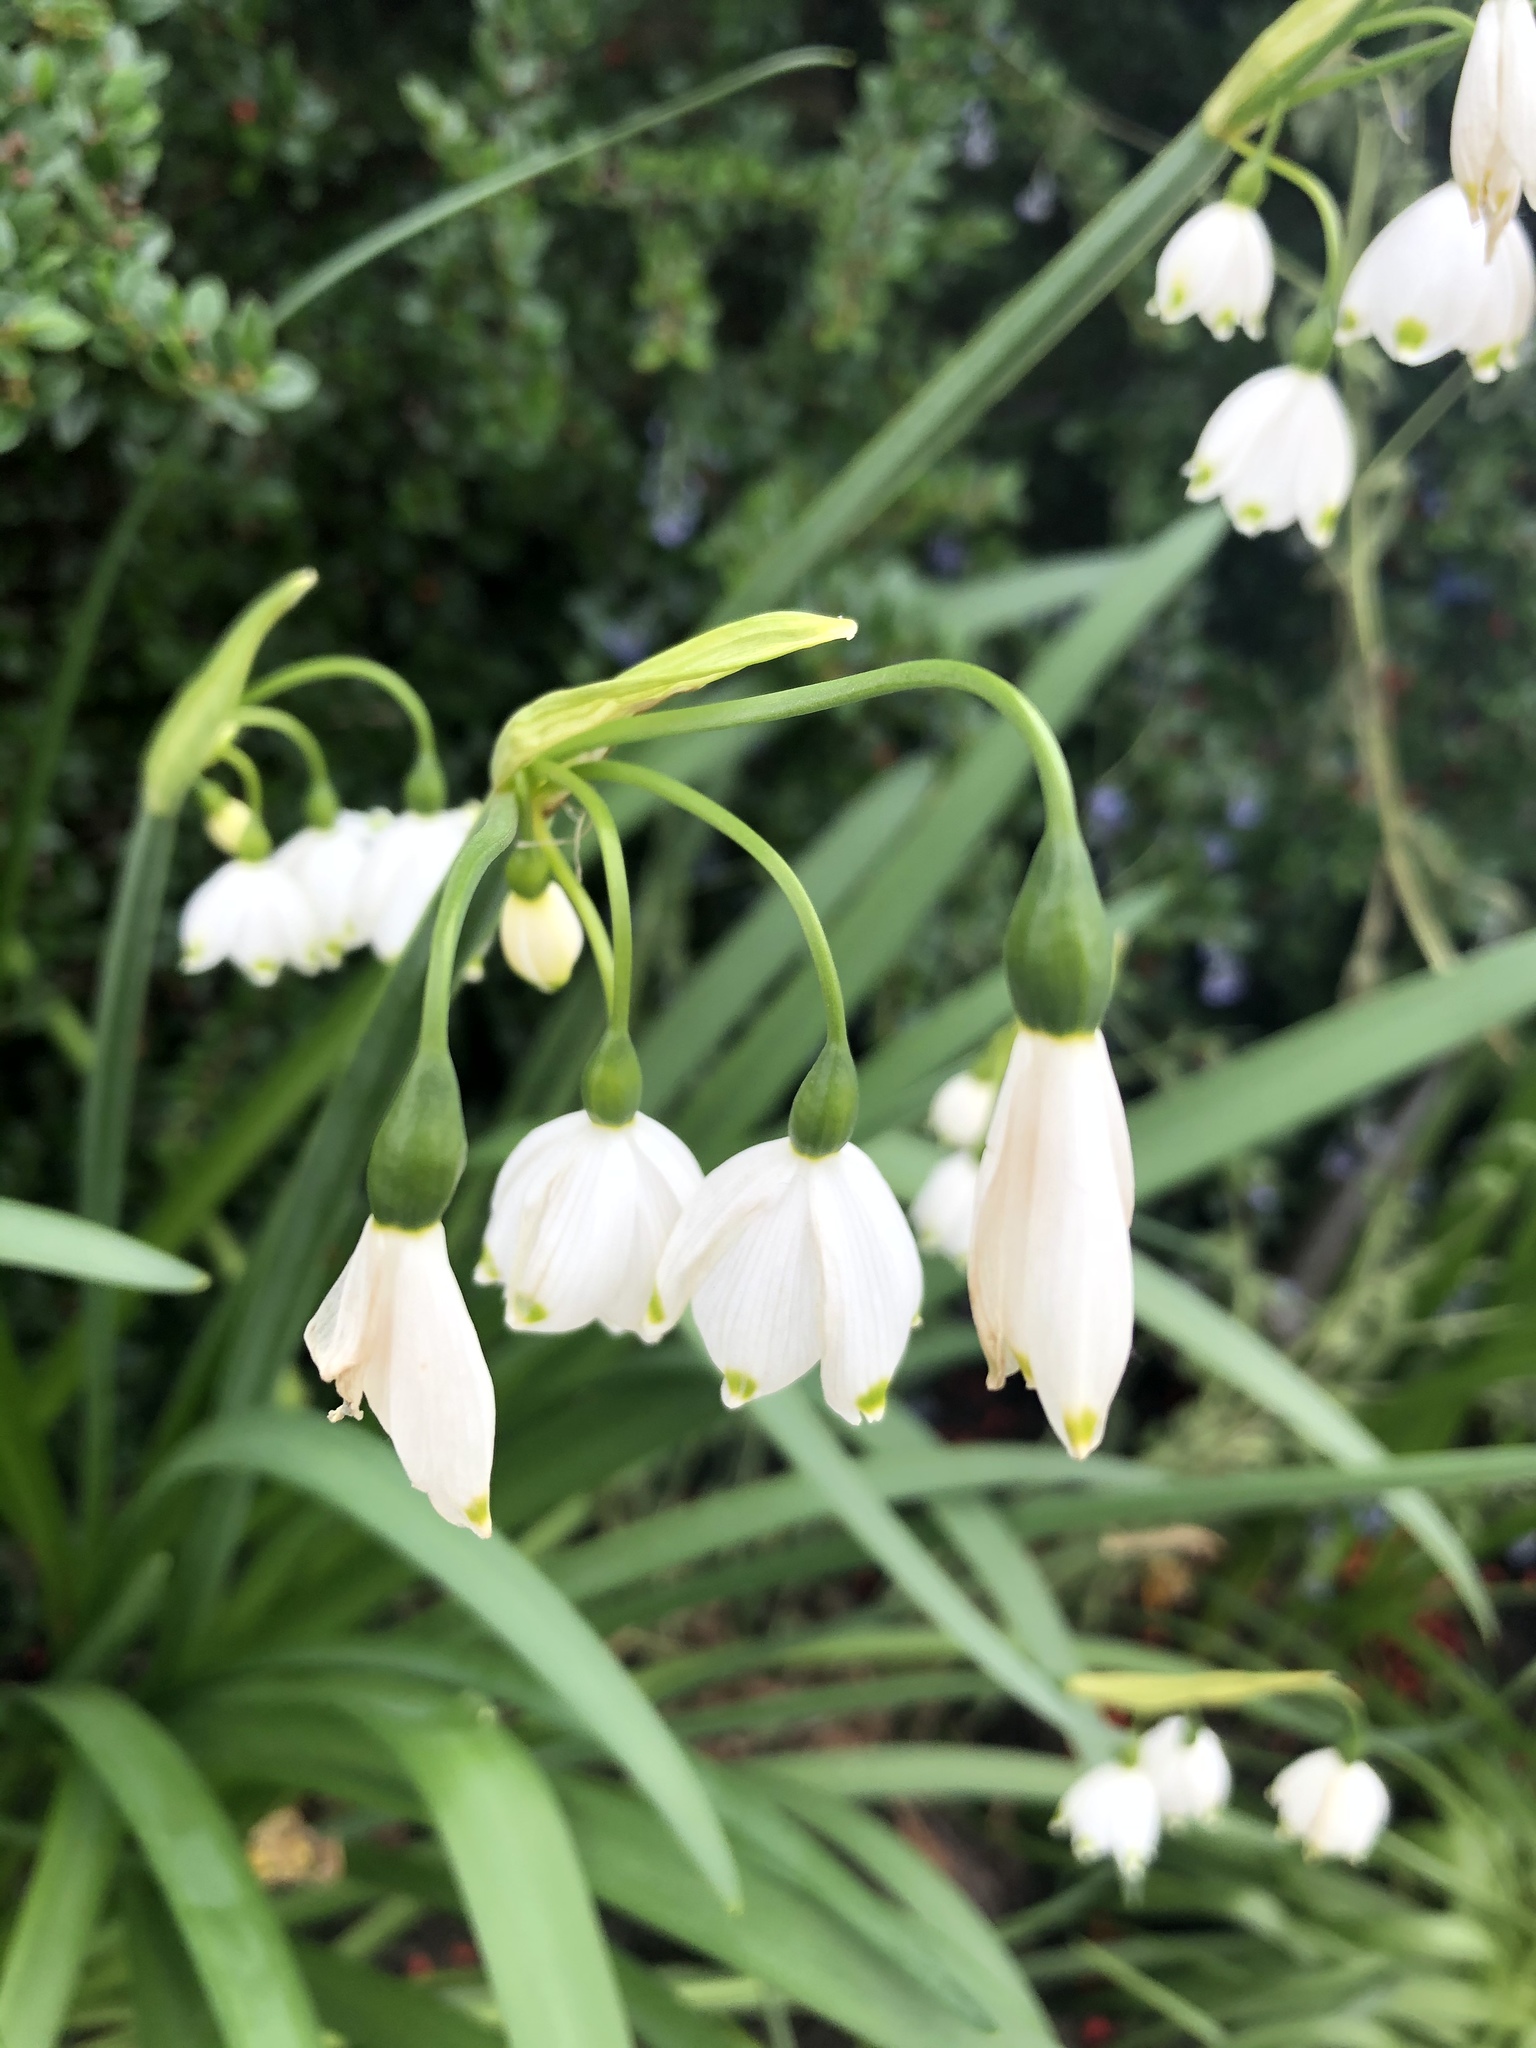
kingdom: Plantae
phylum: Tracheophyta
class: Liliopsida
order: Asparagales
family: Amaryllidaceae
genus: Leucojum
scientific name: Leucojum aestivum
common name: Summer snowflake
